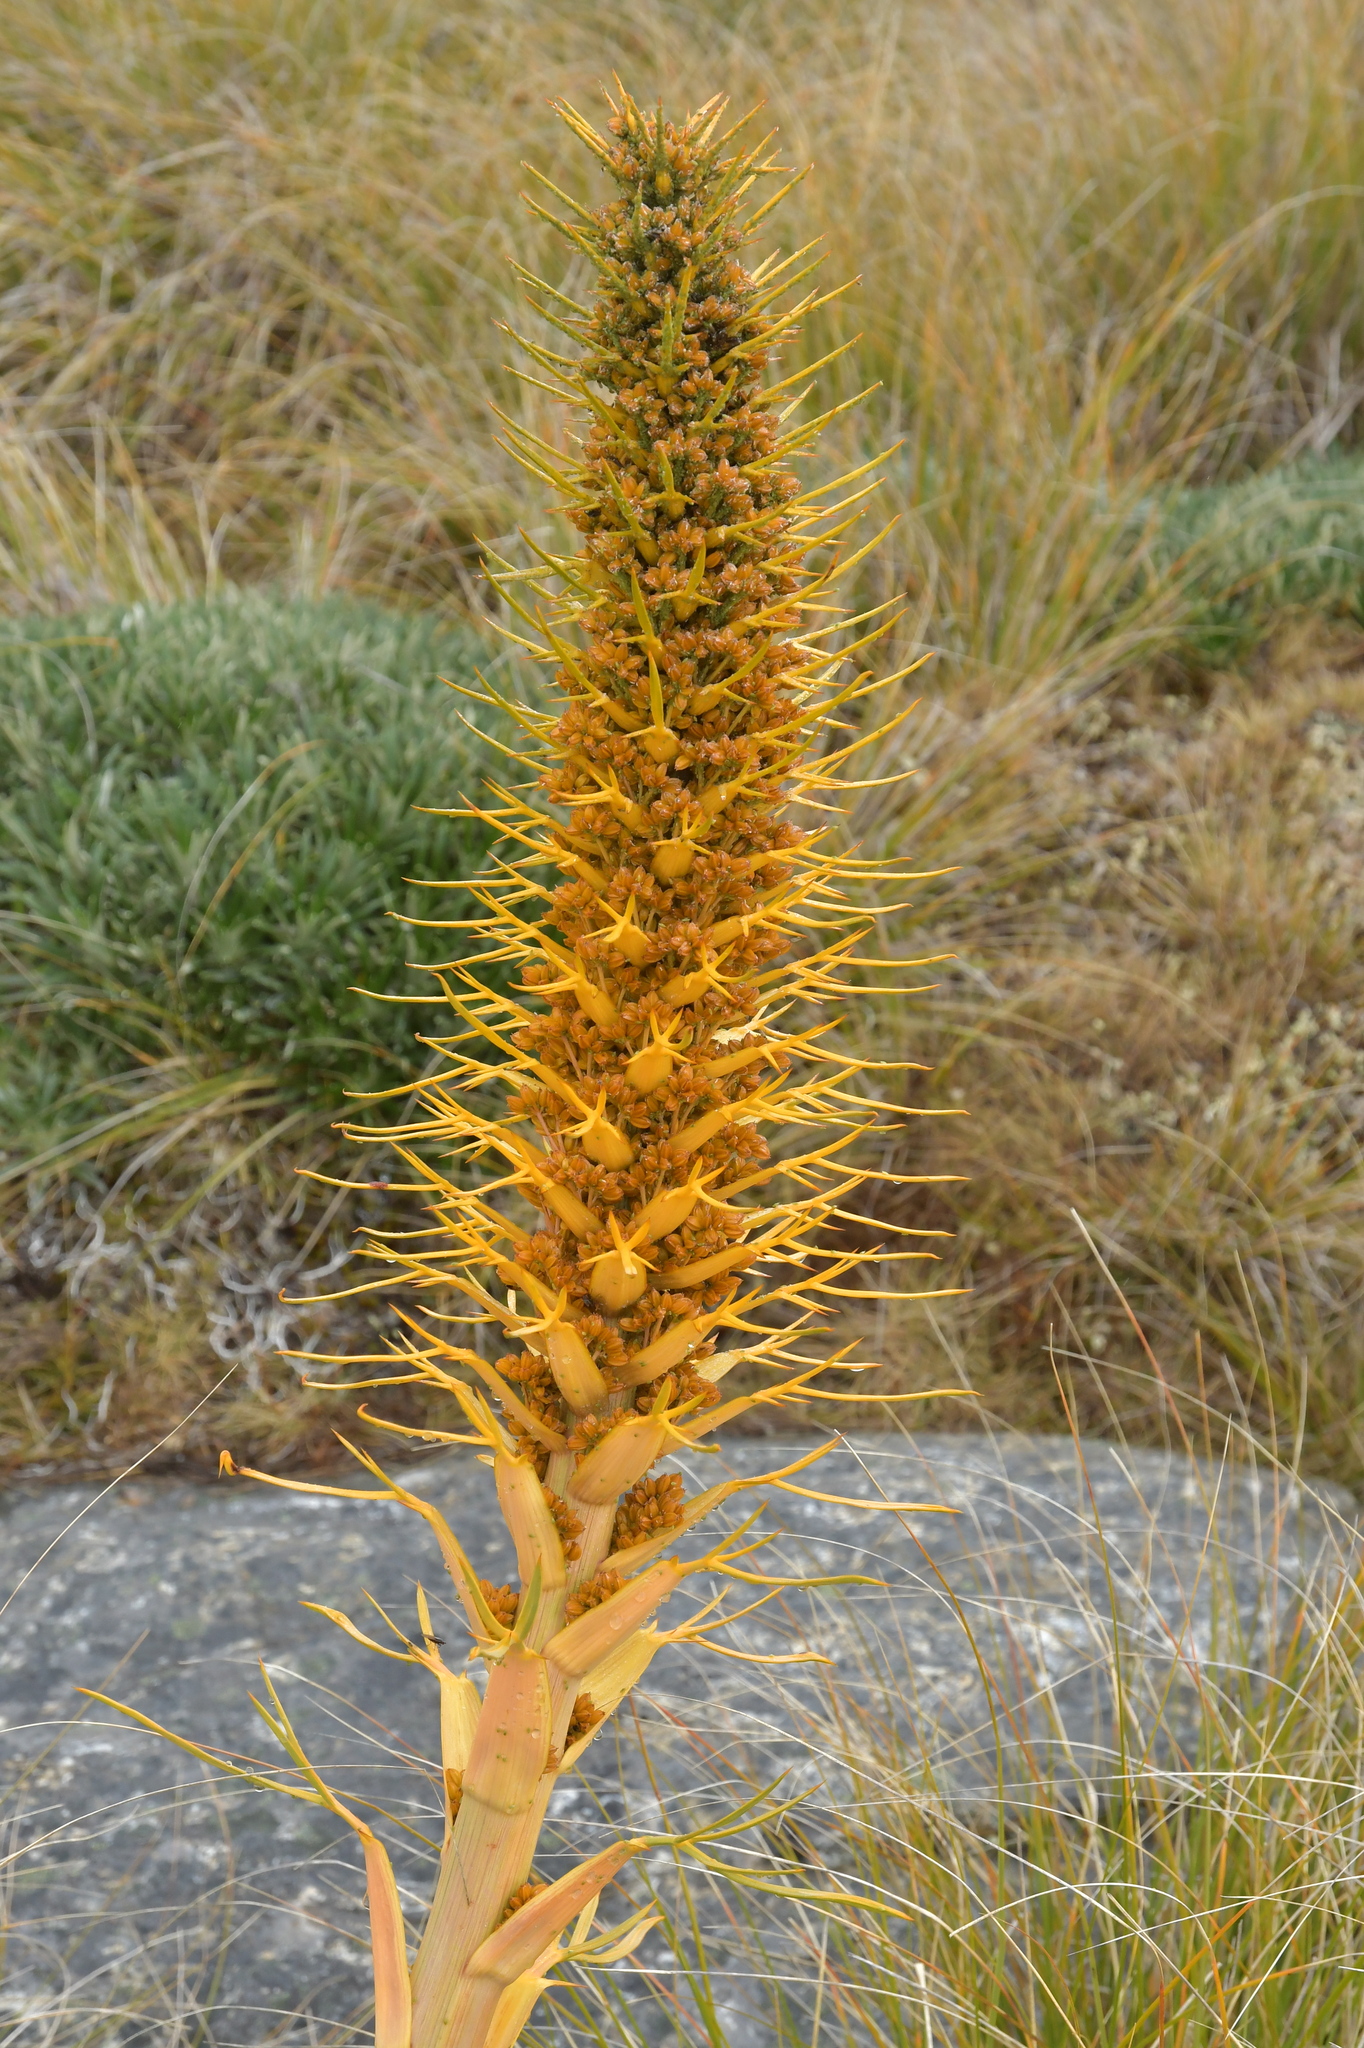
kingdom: Plantae
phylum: Tracheophyta
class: Magnoliopsida
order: Apiales
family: Apiaceae
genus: Aciphylla
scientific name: Aciphylla aurea
